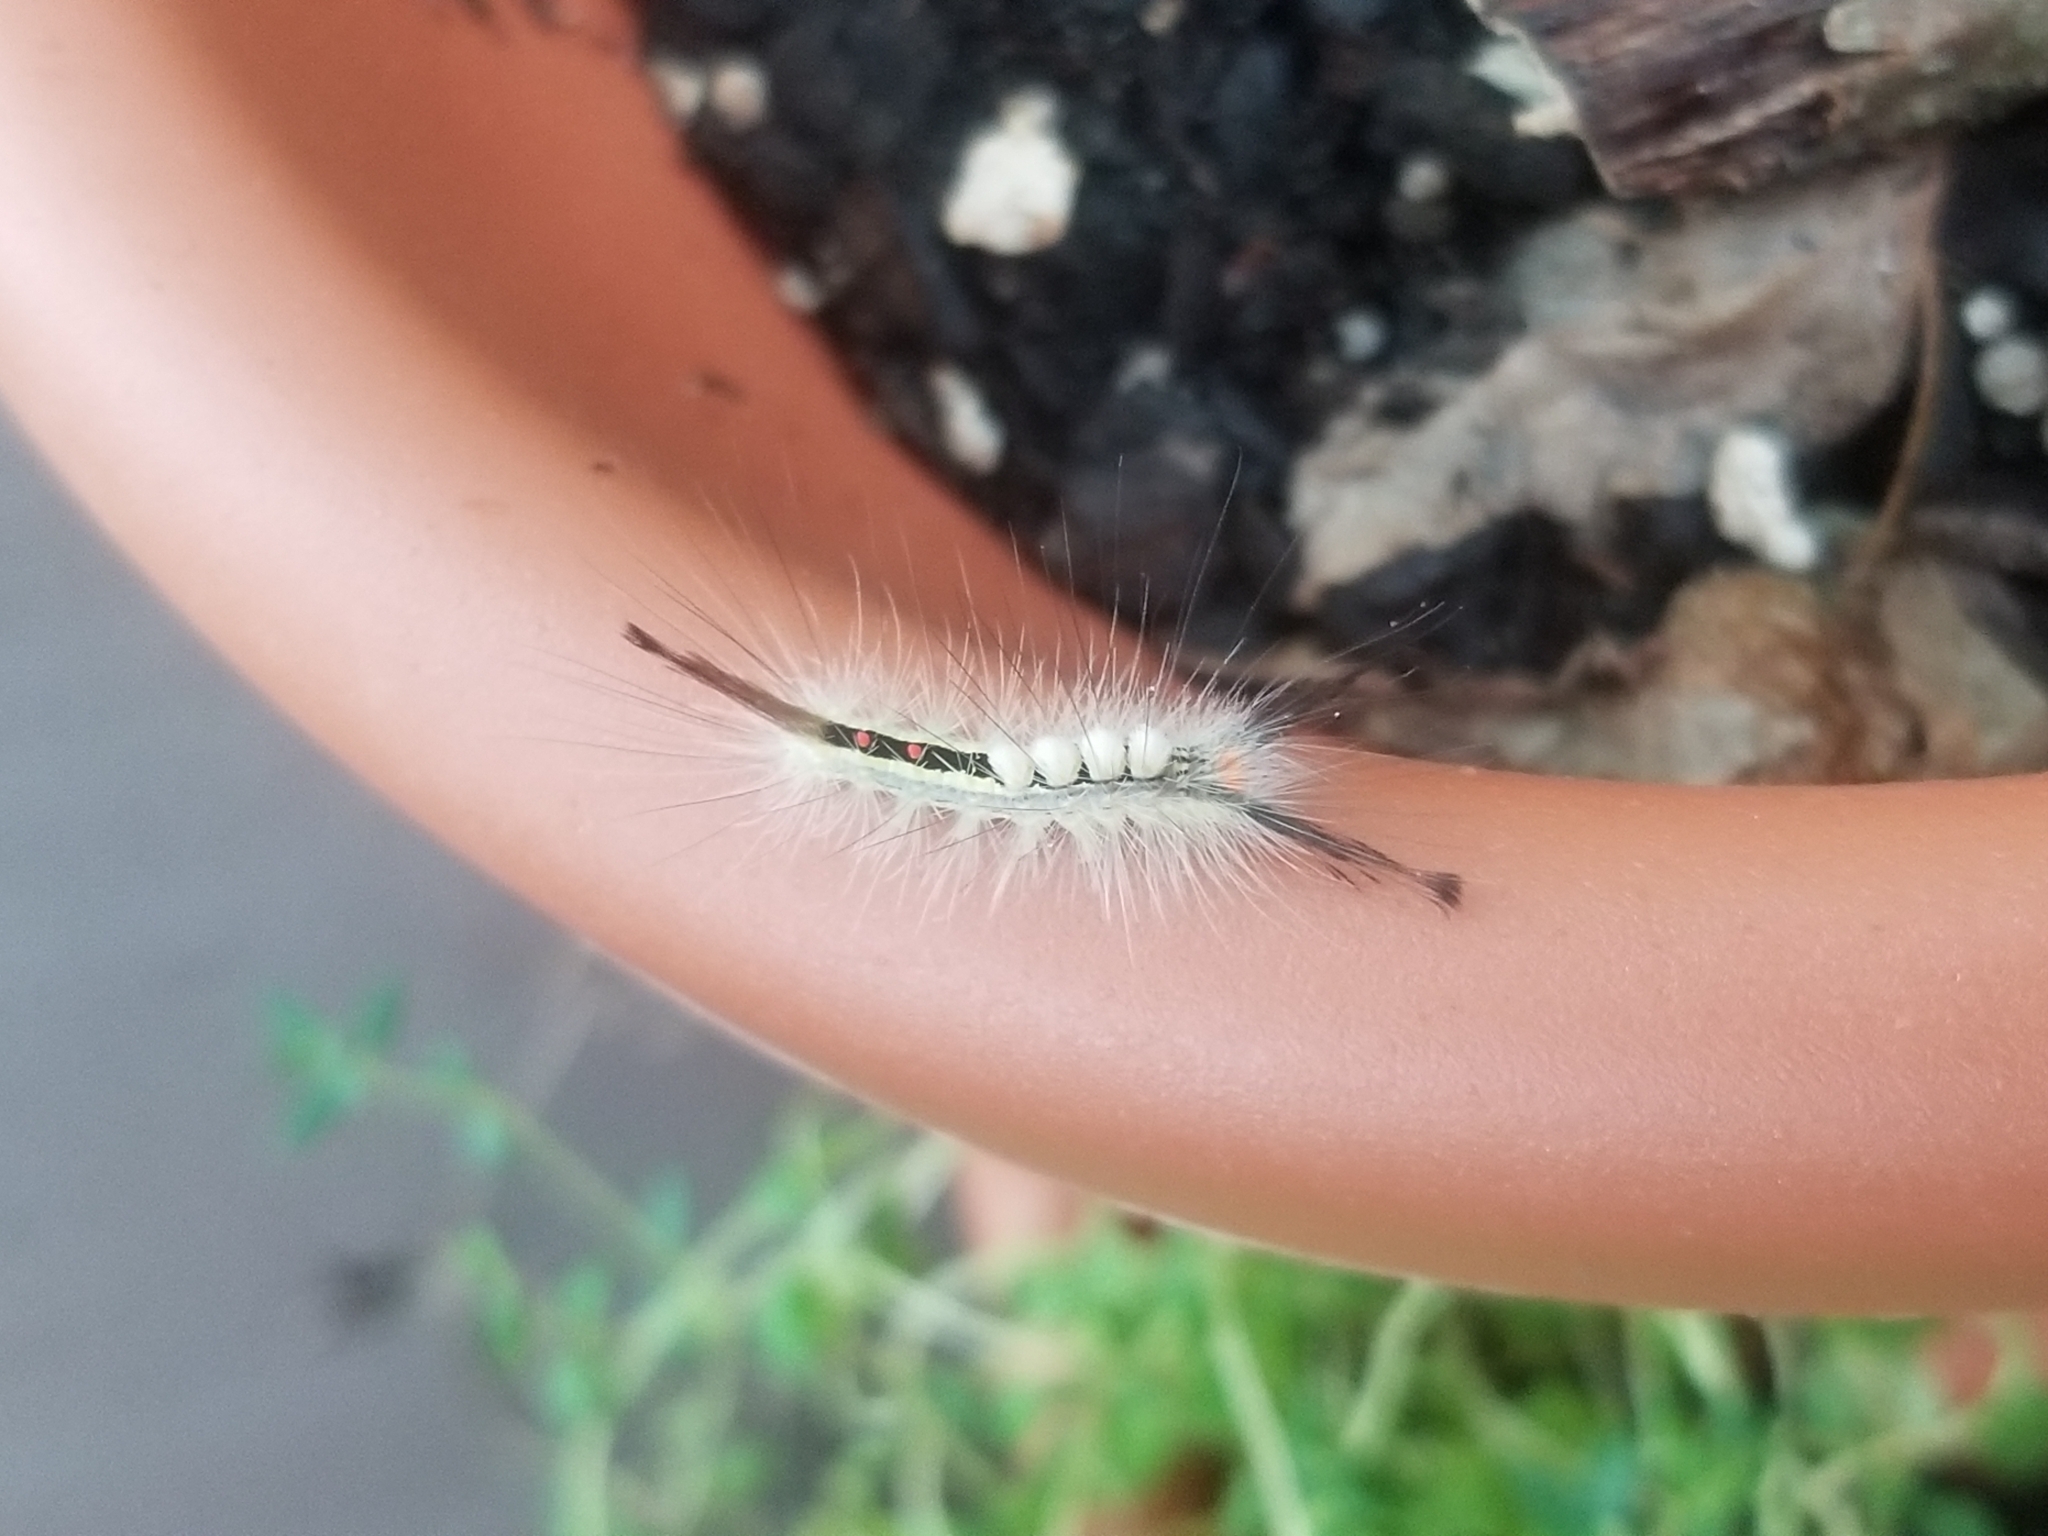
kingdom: Animalia
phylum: Arthropoda
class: Insecta
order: Lepidoptera
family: Erebidae
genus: Orgyia
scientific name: Orgyia leucostigma
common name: White-marked tussock moth
